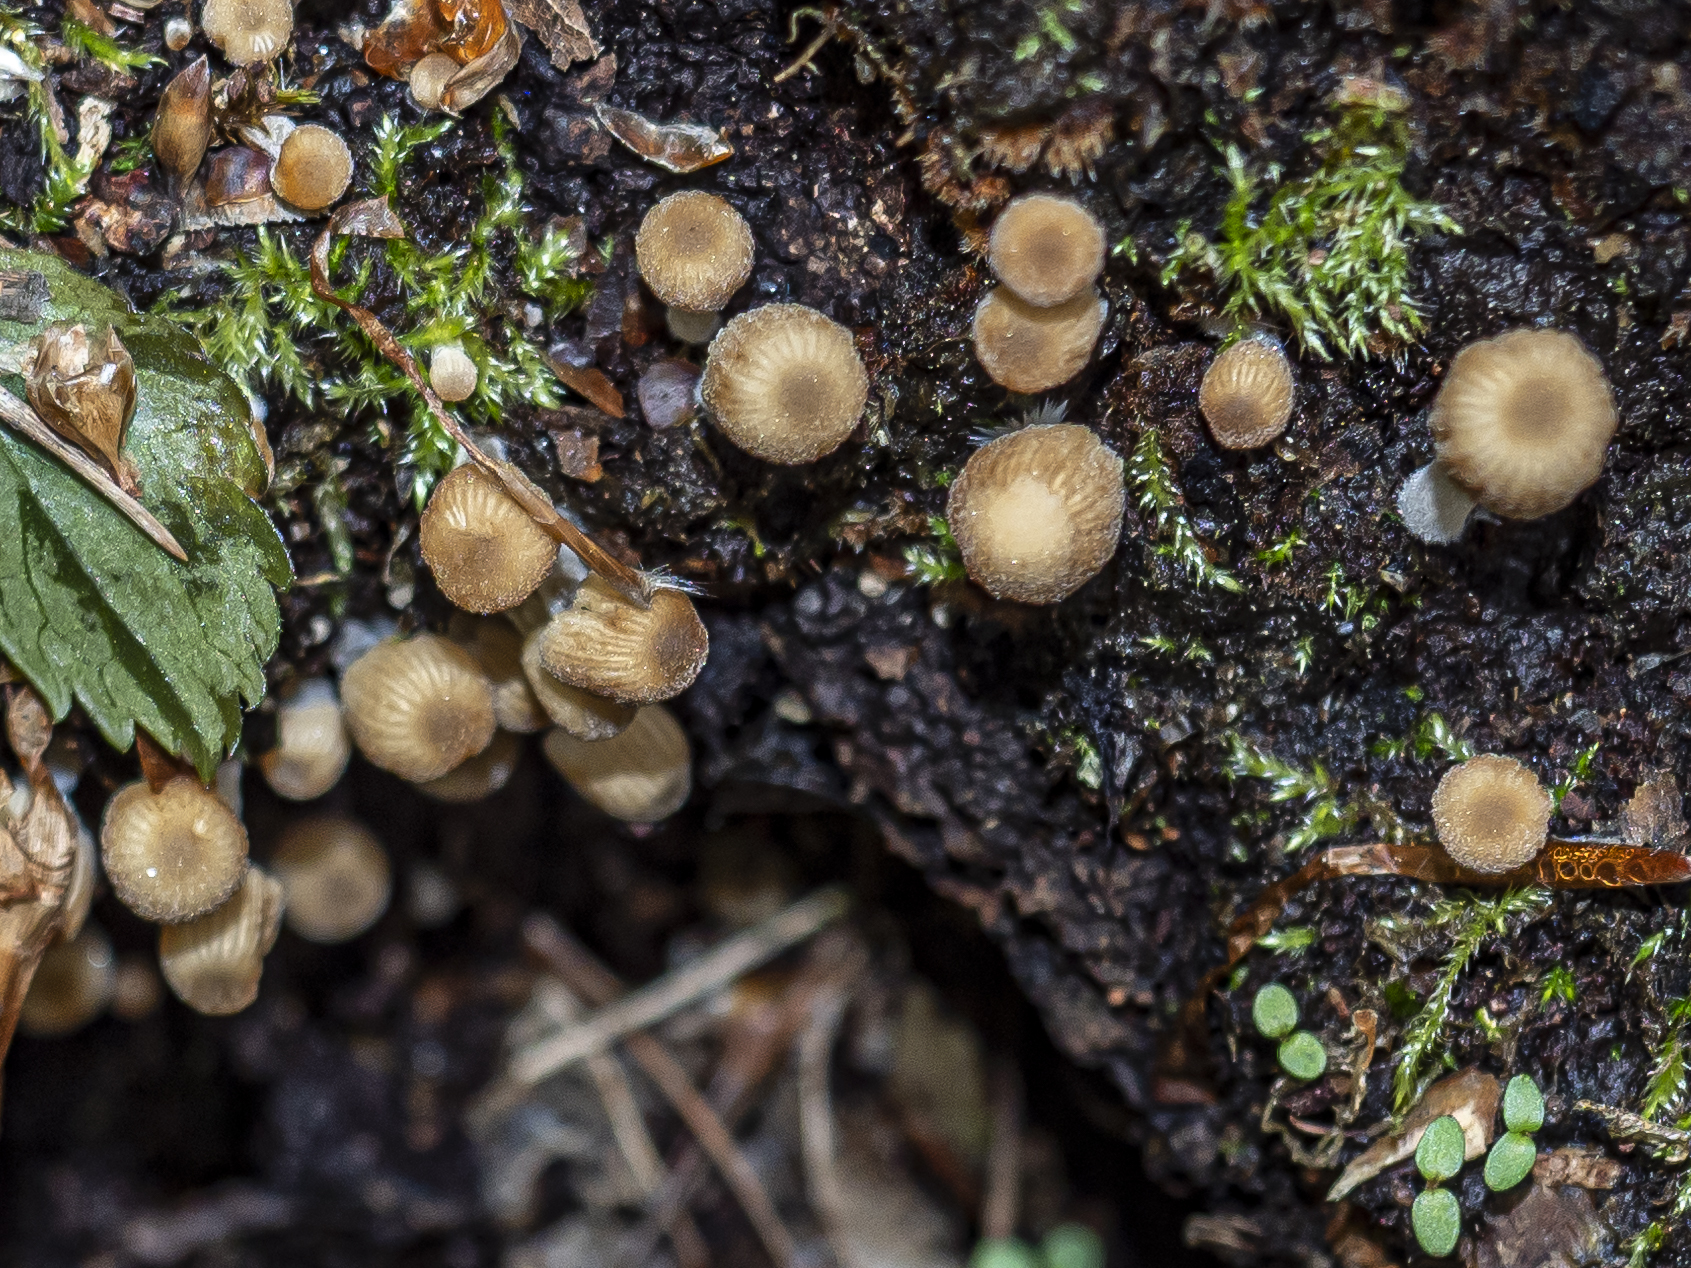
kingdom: Fungi
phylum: Basidiomycota
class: Agaricomycetes
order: Agaricales
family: Psathyrellaceae
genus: Coprinellus
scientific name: Coprinellus disseminatus
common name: Fairies' bonnets
